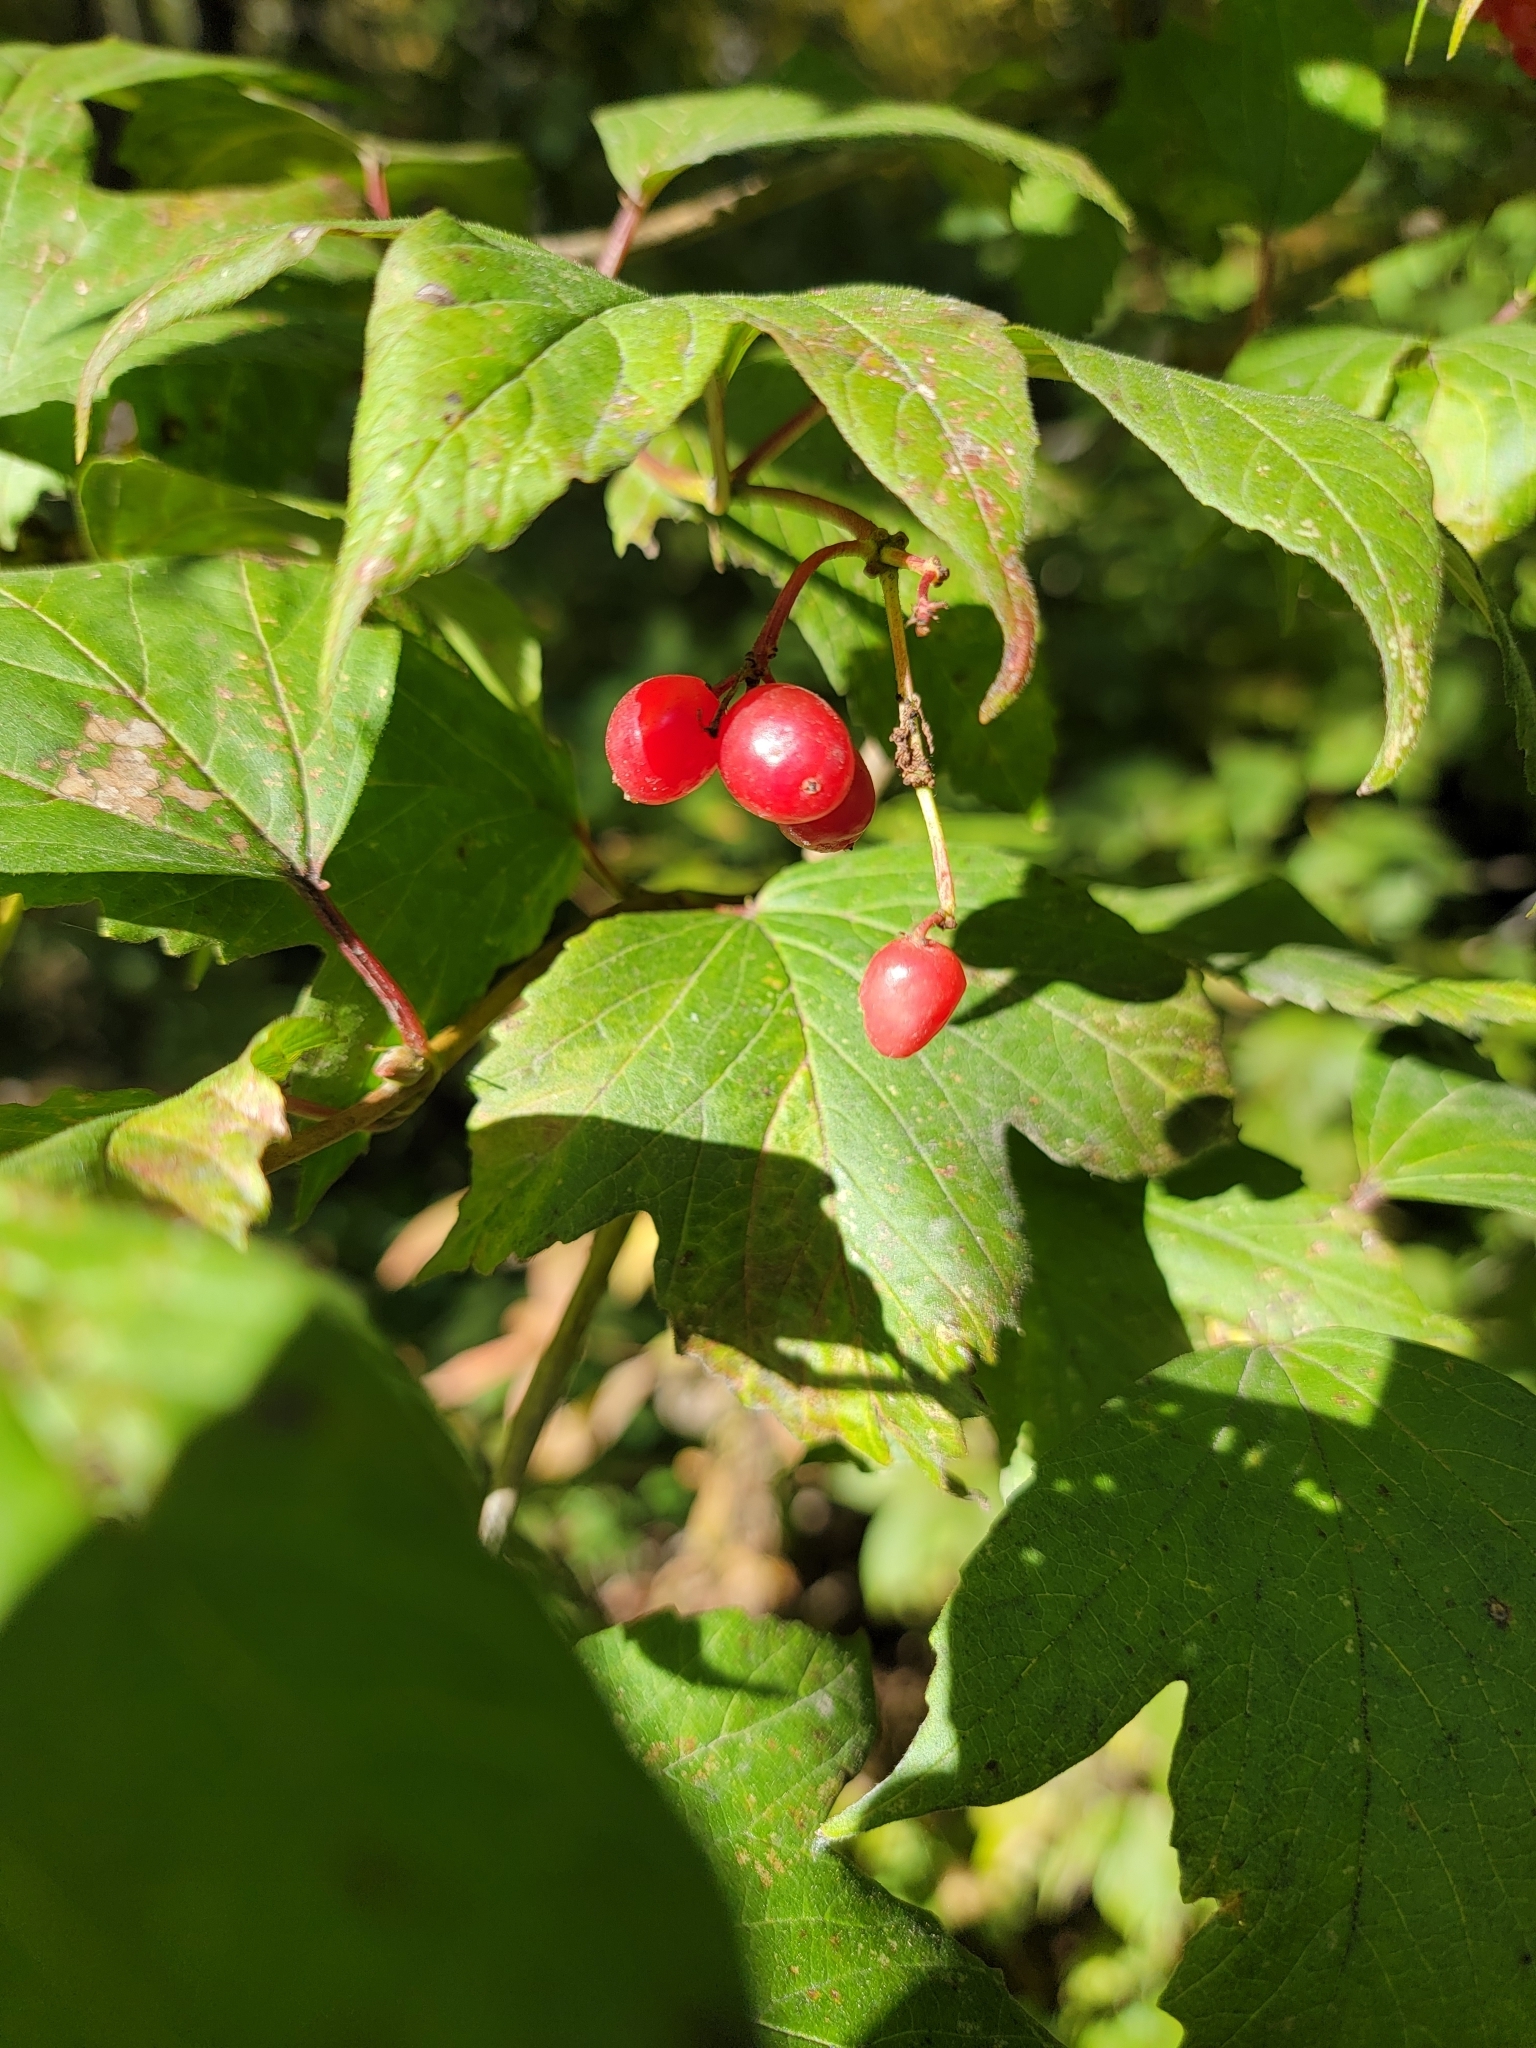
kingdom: Plantae
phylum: Tracheophyta
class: Magnoliopsida
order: Dipsacales
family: Viburnaceae
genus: Viburnum
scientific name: Viburnum trilobum
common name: American cranberrybush
